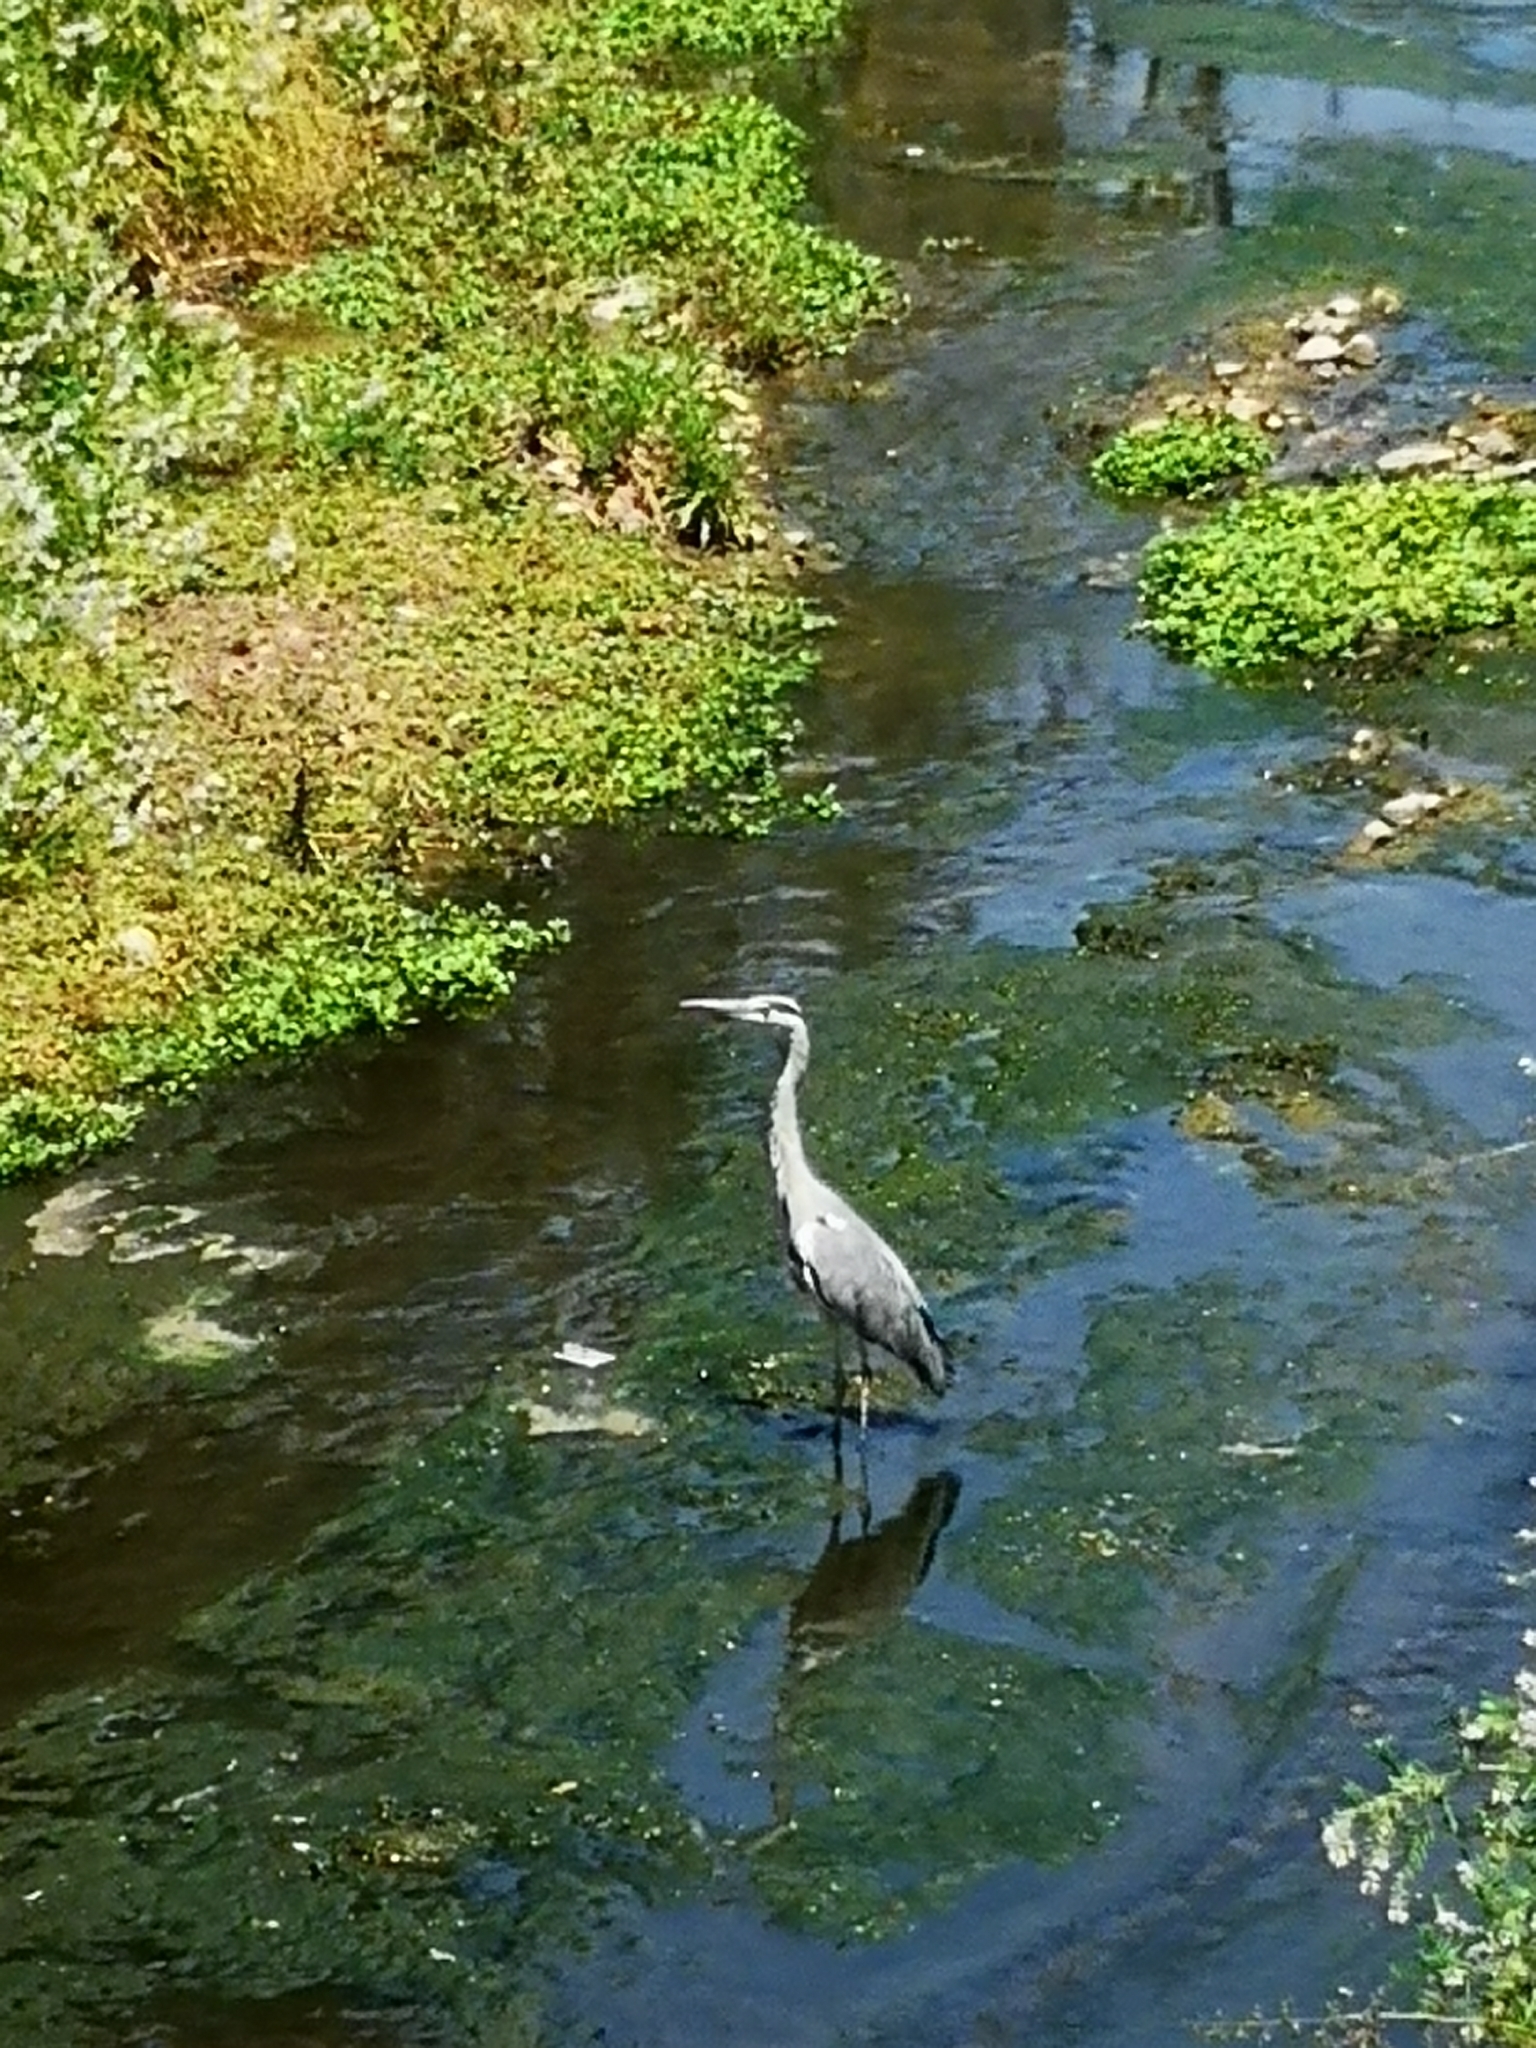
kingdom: Animalia
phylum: Chordata
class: Aves
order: Pelecaniformes
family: Ardeidae
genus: Ardea
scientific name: Ardea cinerea
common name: Grey heron
